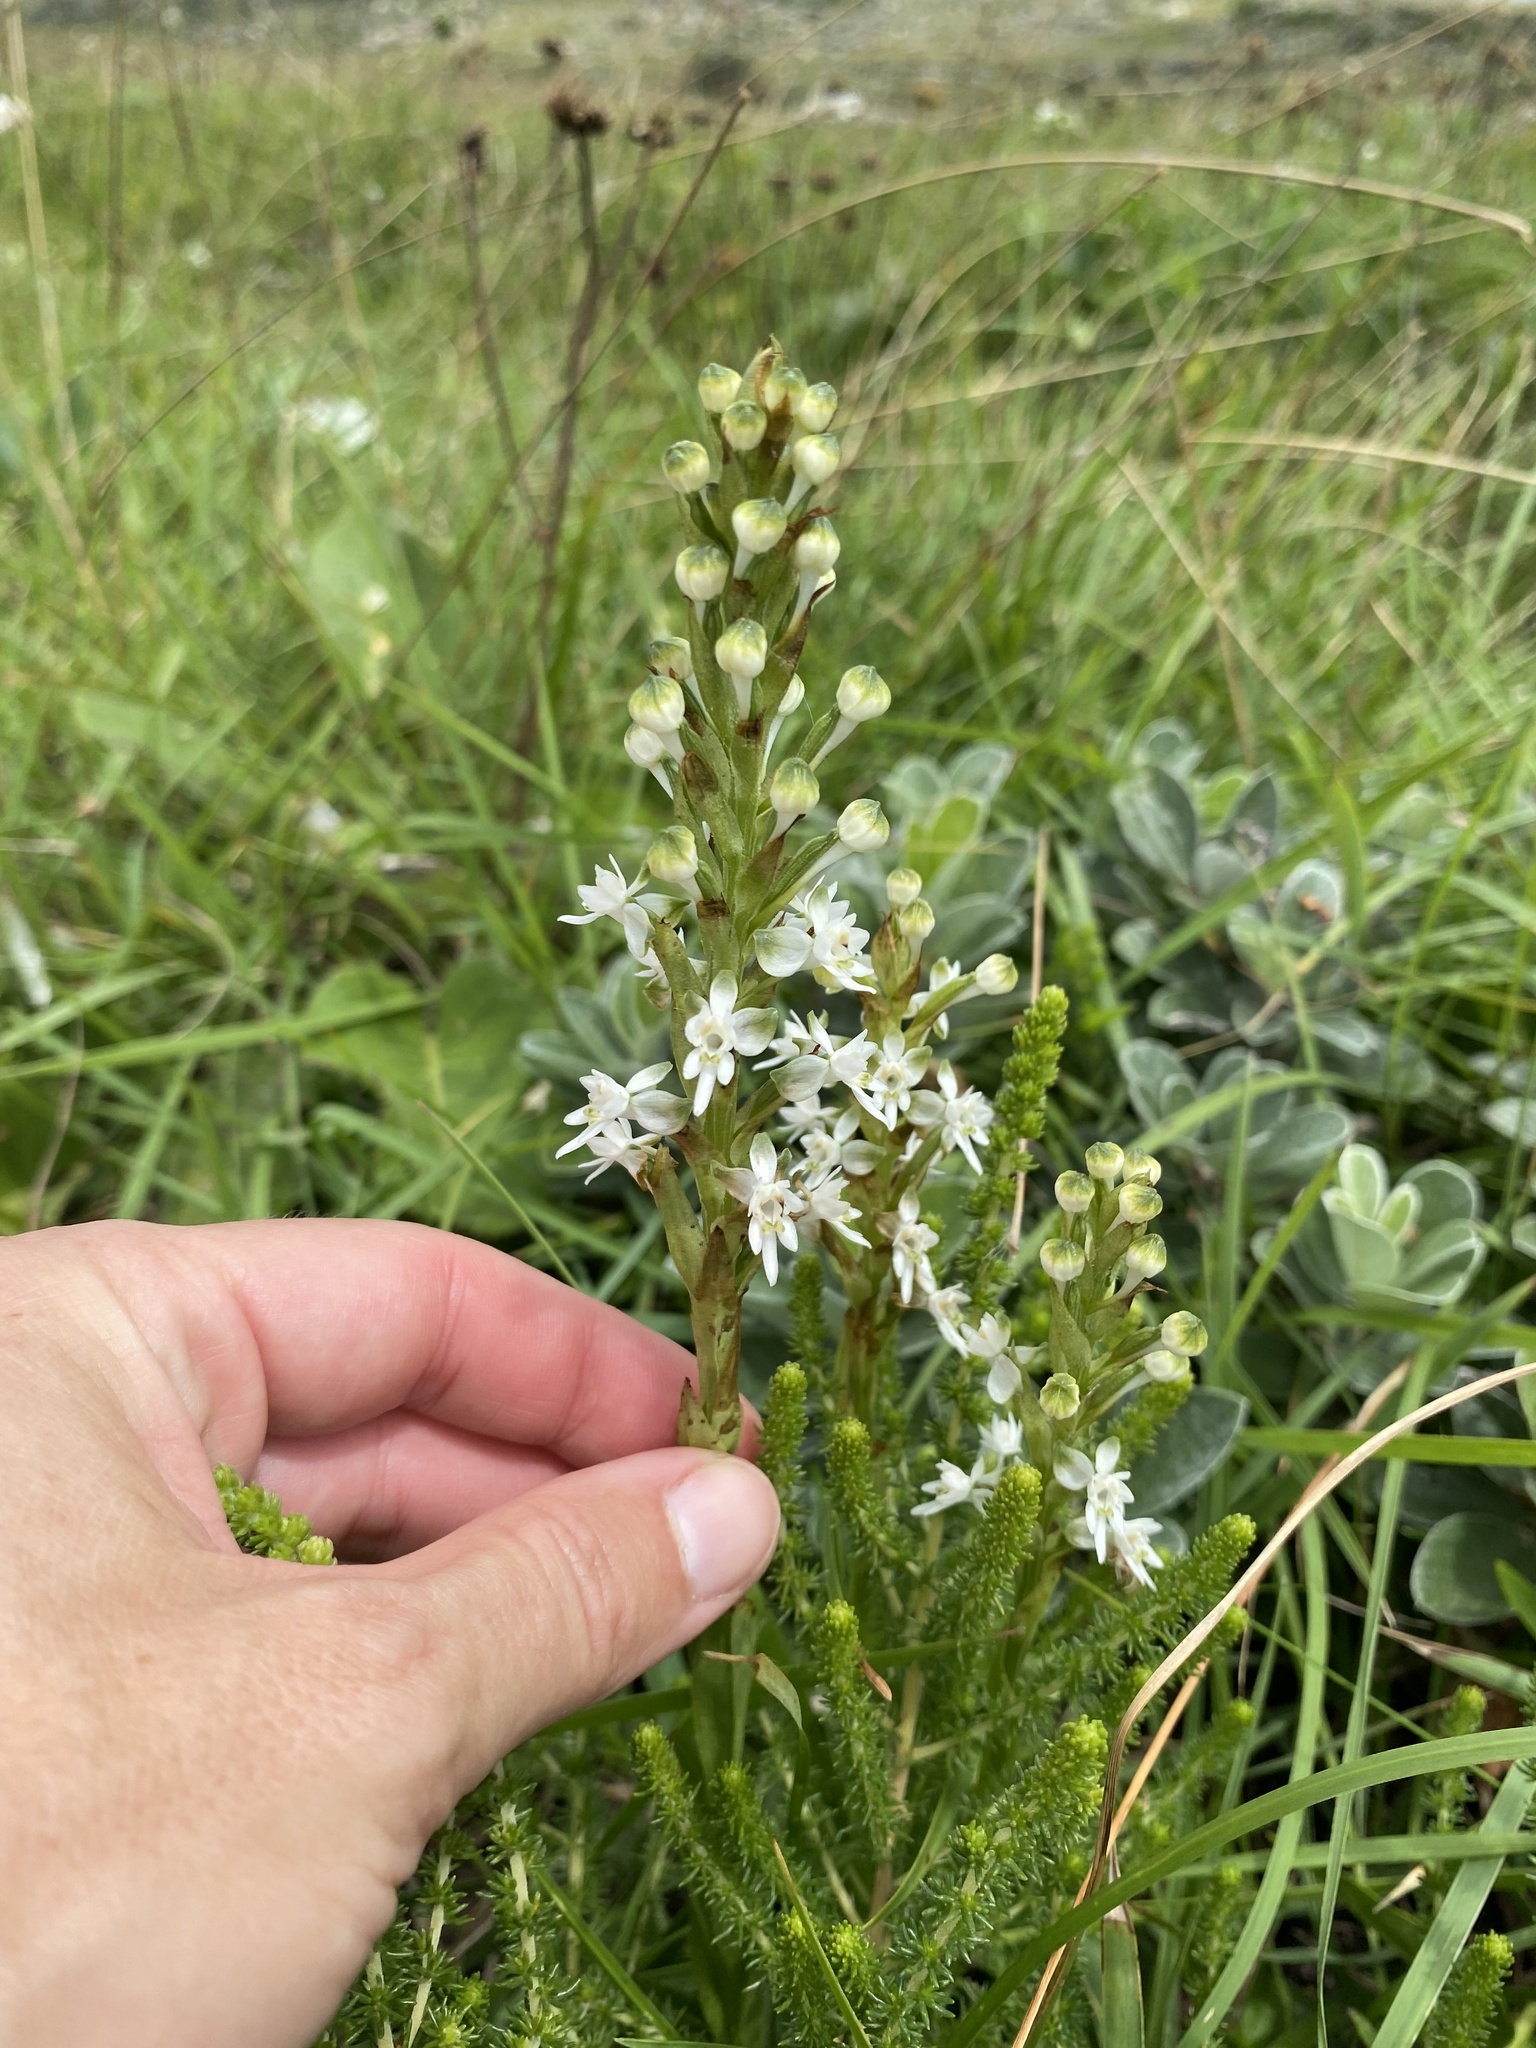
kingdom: Plantae
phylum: Tracheophyta
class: Liliopsida
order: Asparagales
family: Orchidaceae
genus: Habenaria
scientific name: Habenaria dives
